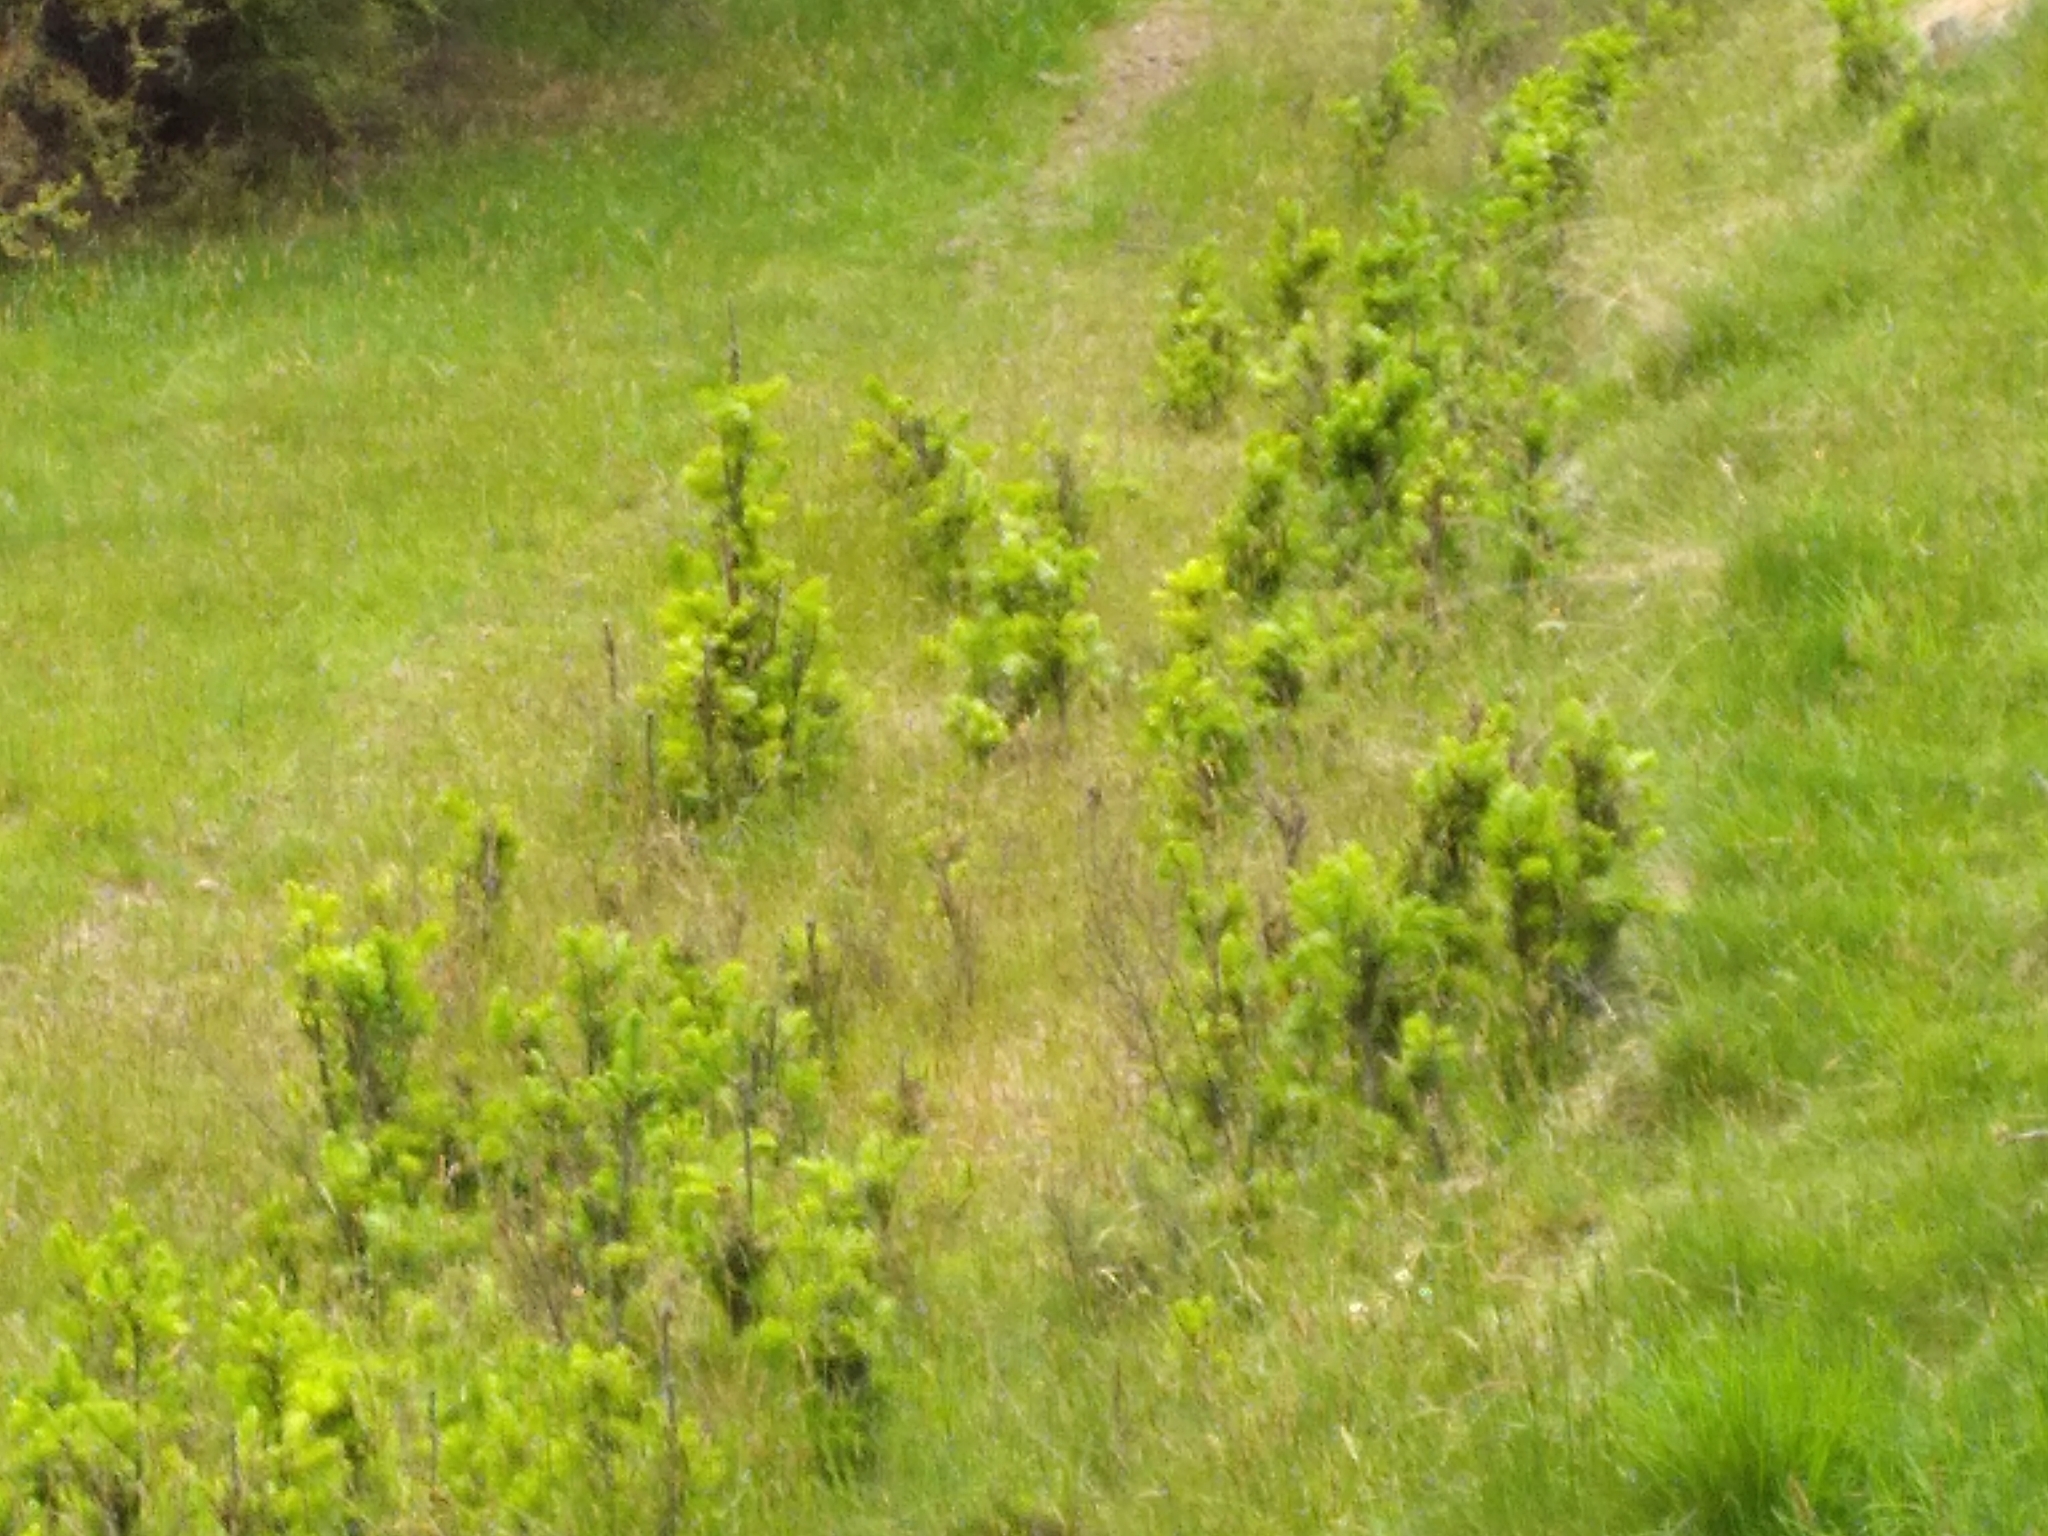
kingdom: Plantae
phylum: Tracheophyta
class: Pinopsida
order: Pinales
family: Pinaceae
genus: Pseudotsuga
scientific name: Pseudotsuga menziesii
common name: Douglas fir
